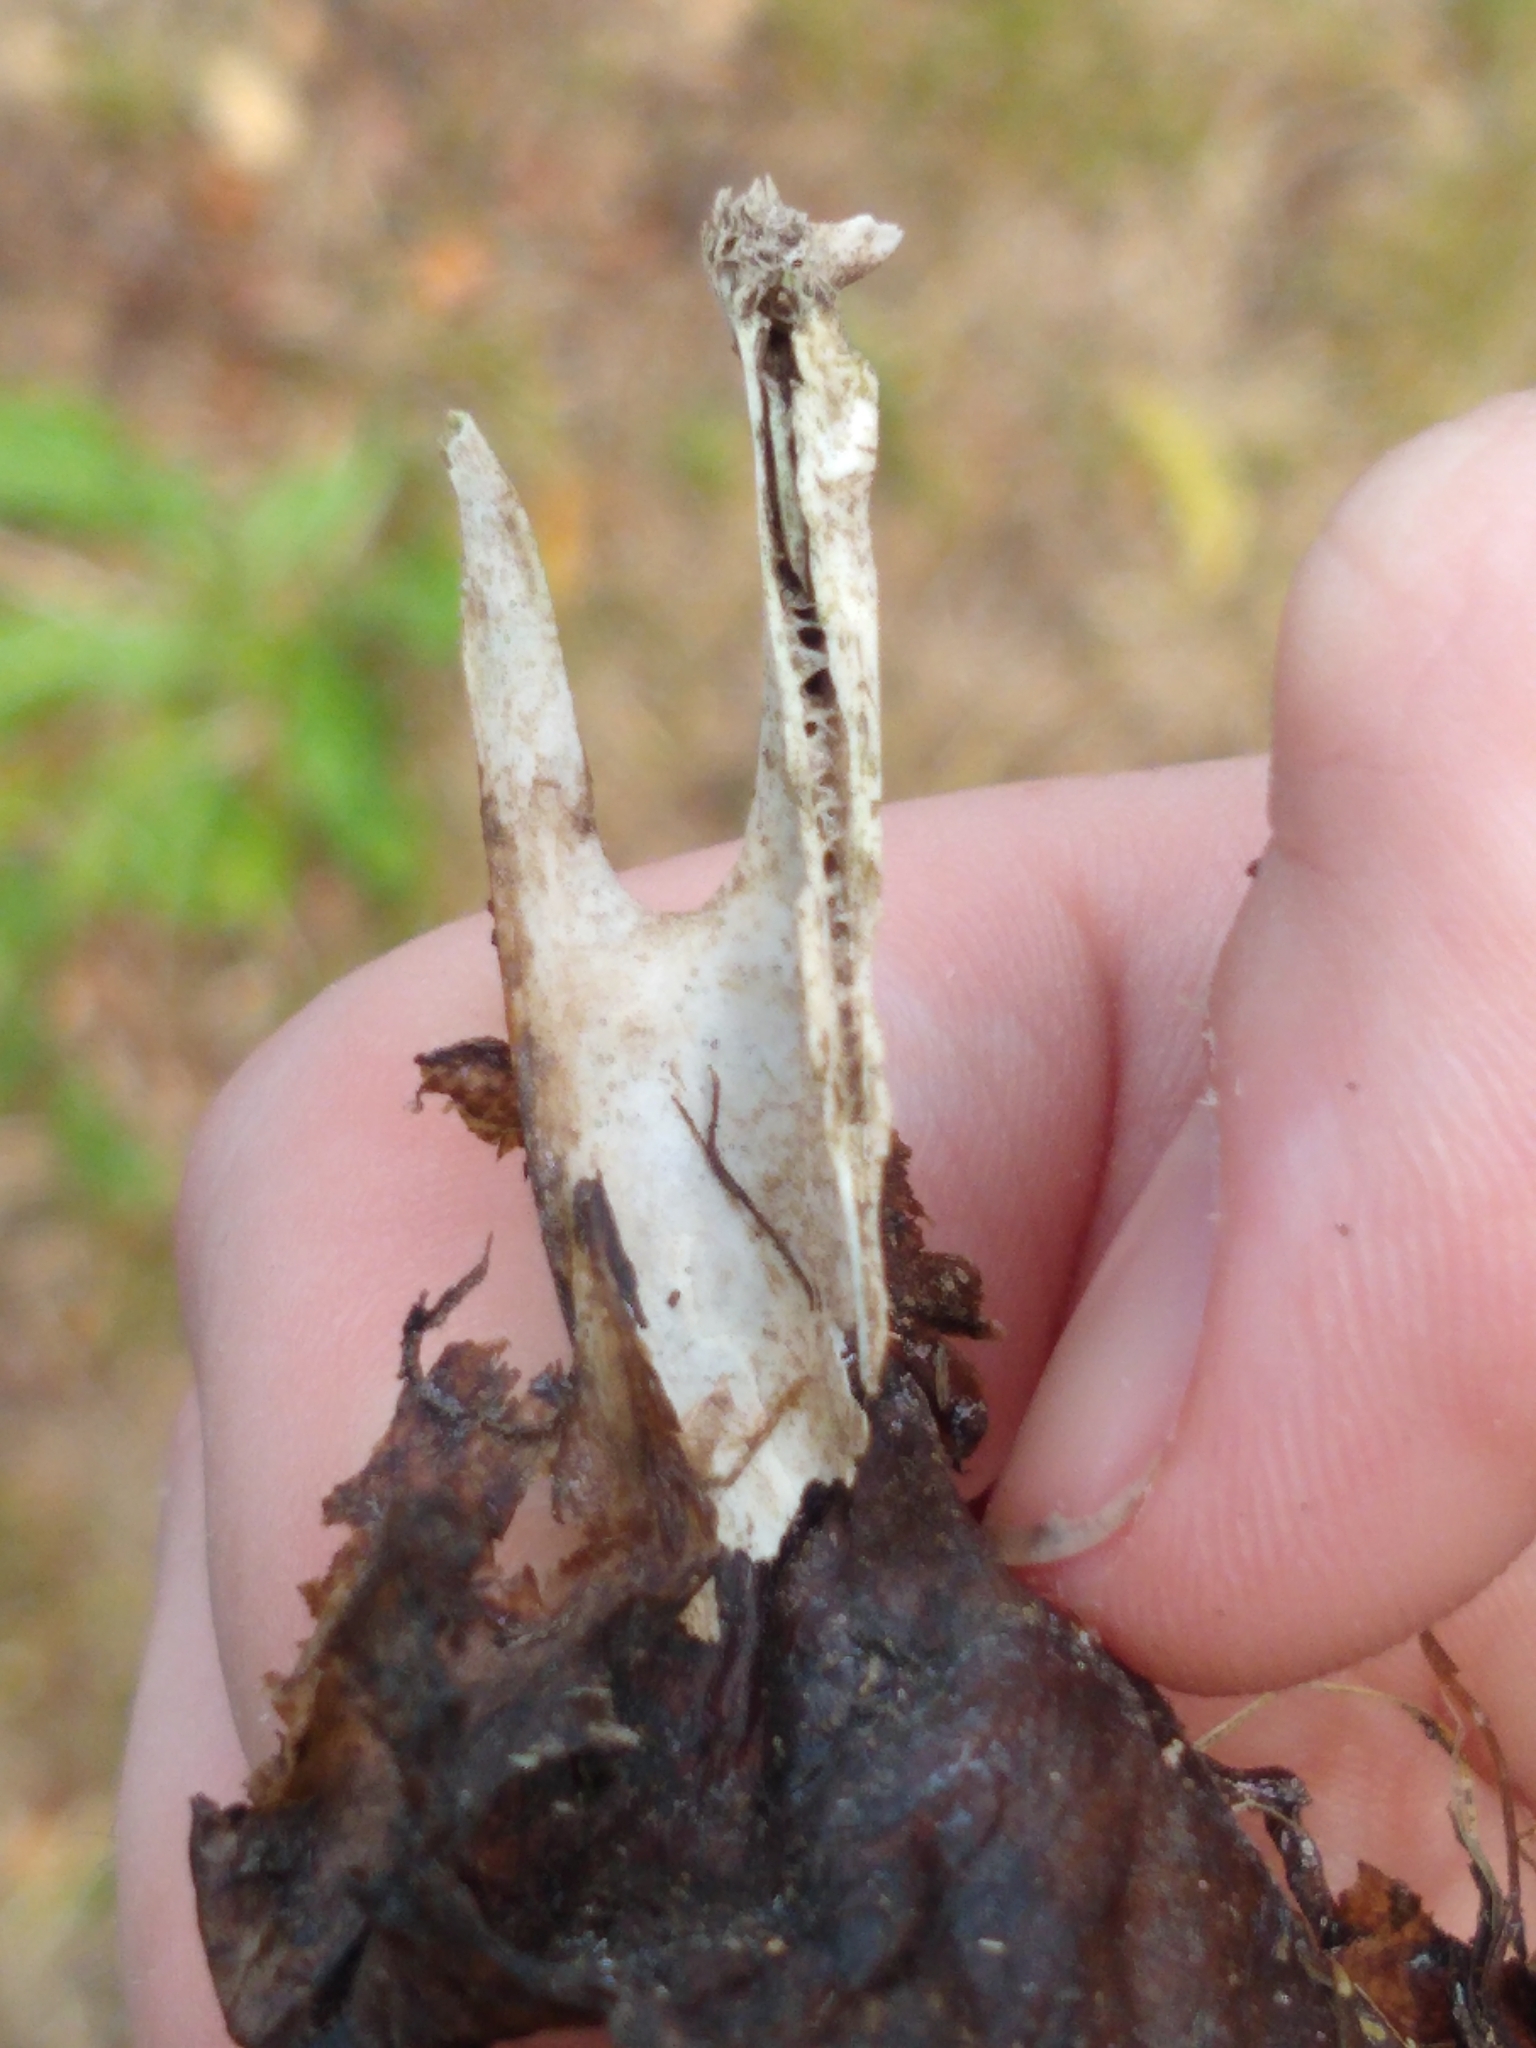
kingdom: Animalia
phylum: Chordata
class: Mammalia
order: Lagomorpha
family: Leporidae
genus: Sylvilagus
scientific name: Sylvilagus floridanus
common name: Eastern cottontail
